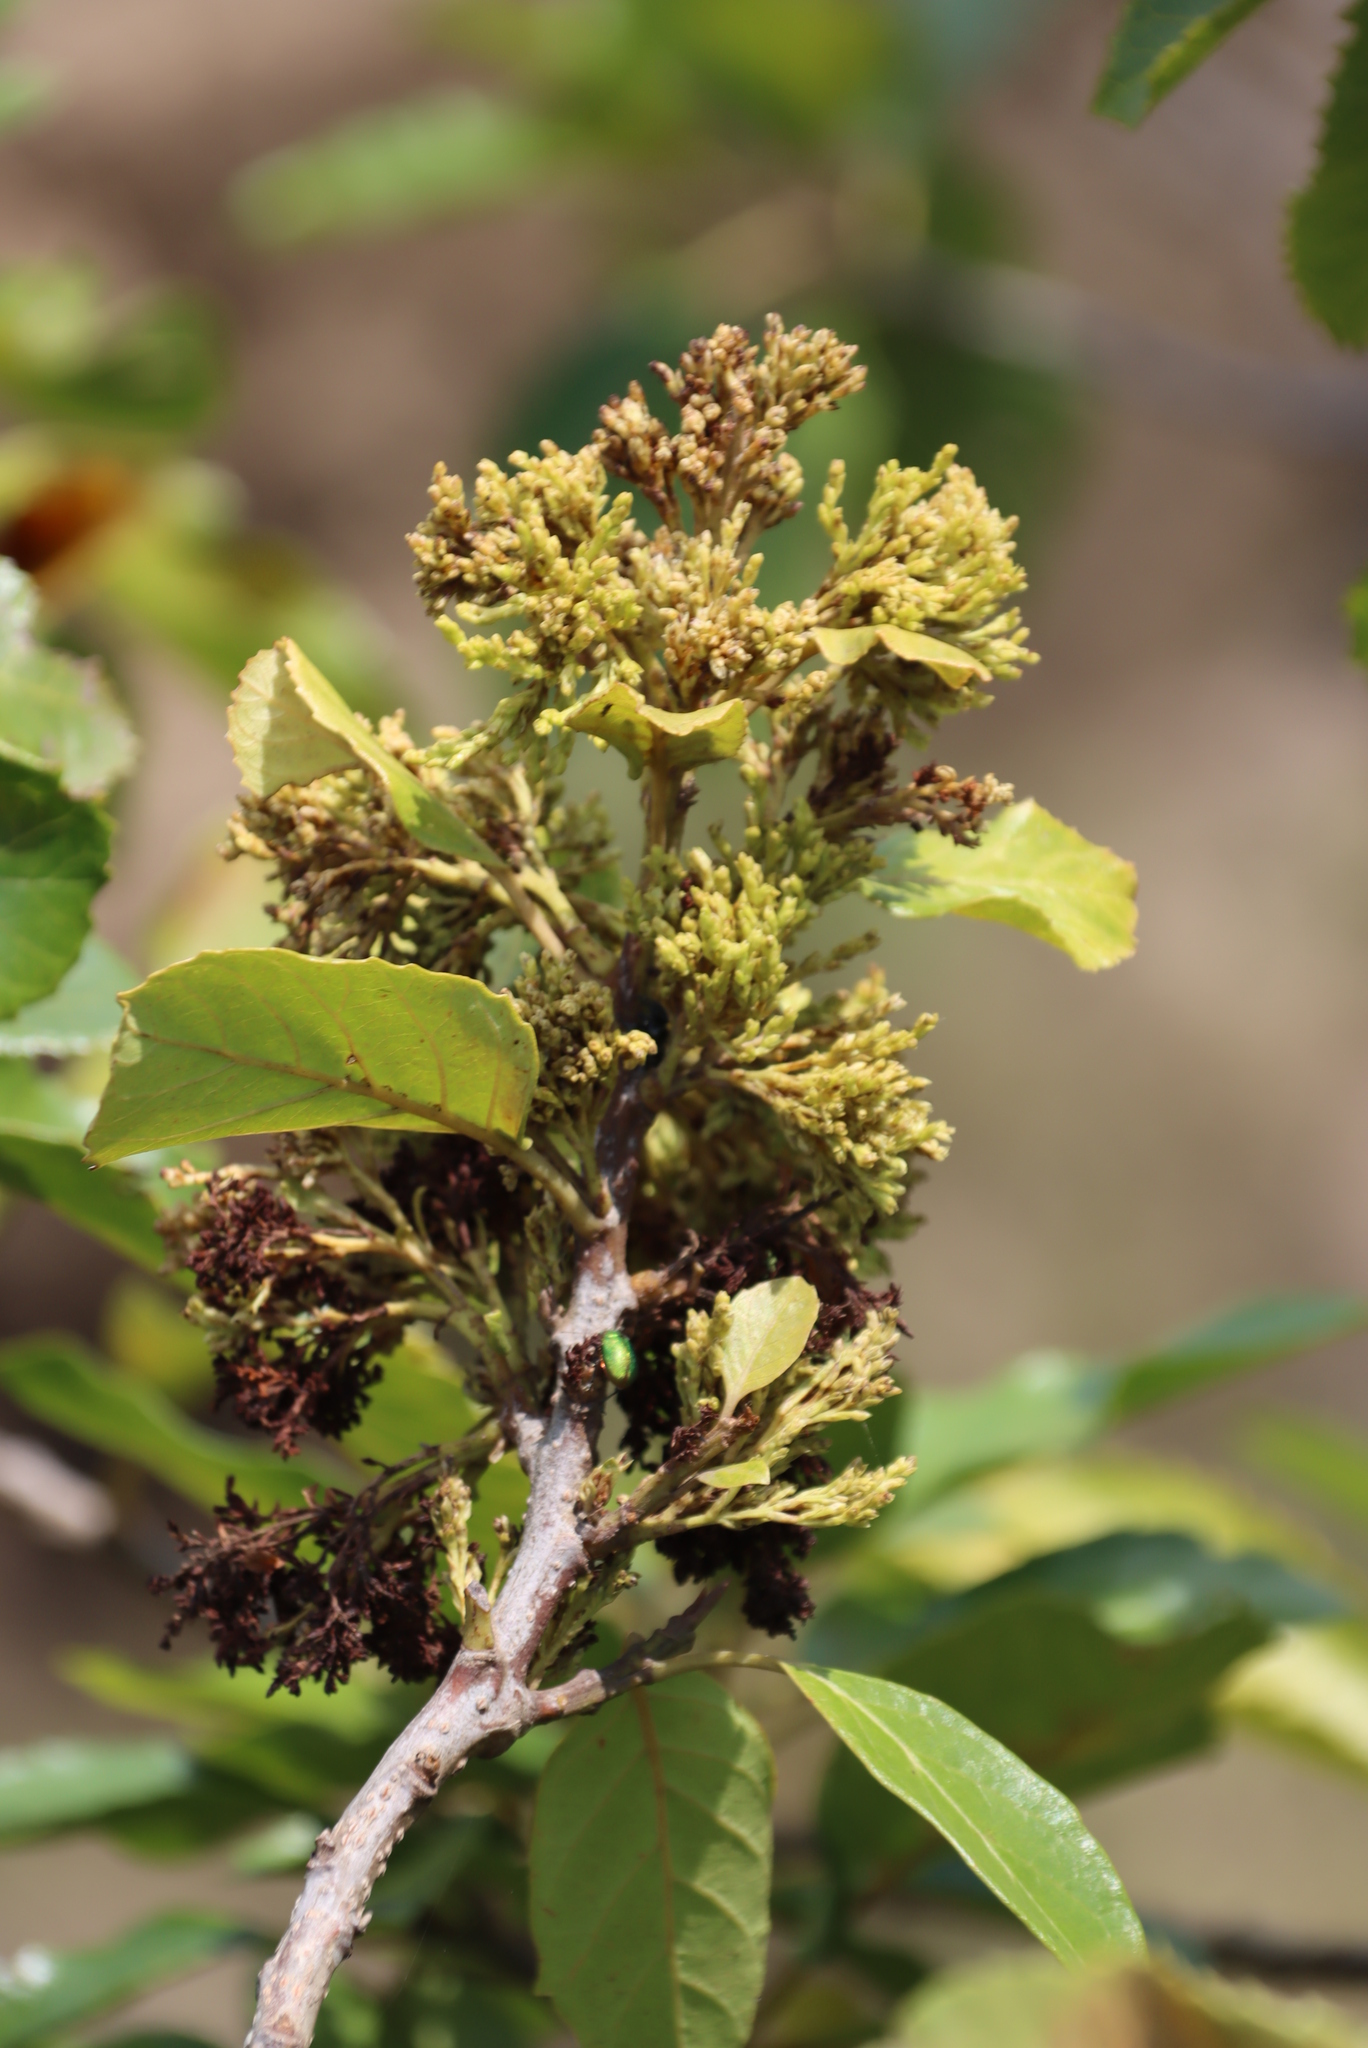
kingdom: Plantae
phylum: Tracheophyta
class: Magnoliopsida
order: Ericales
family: Primulaceae
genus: Maesa
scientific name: Maesa lanceolata
